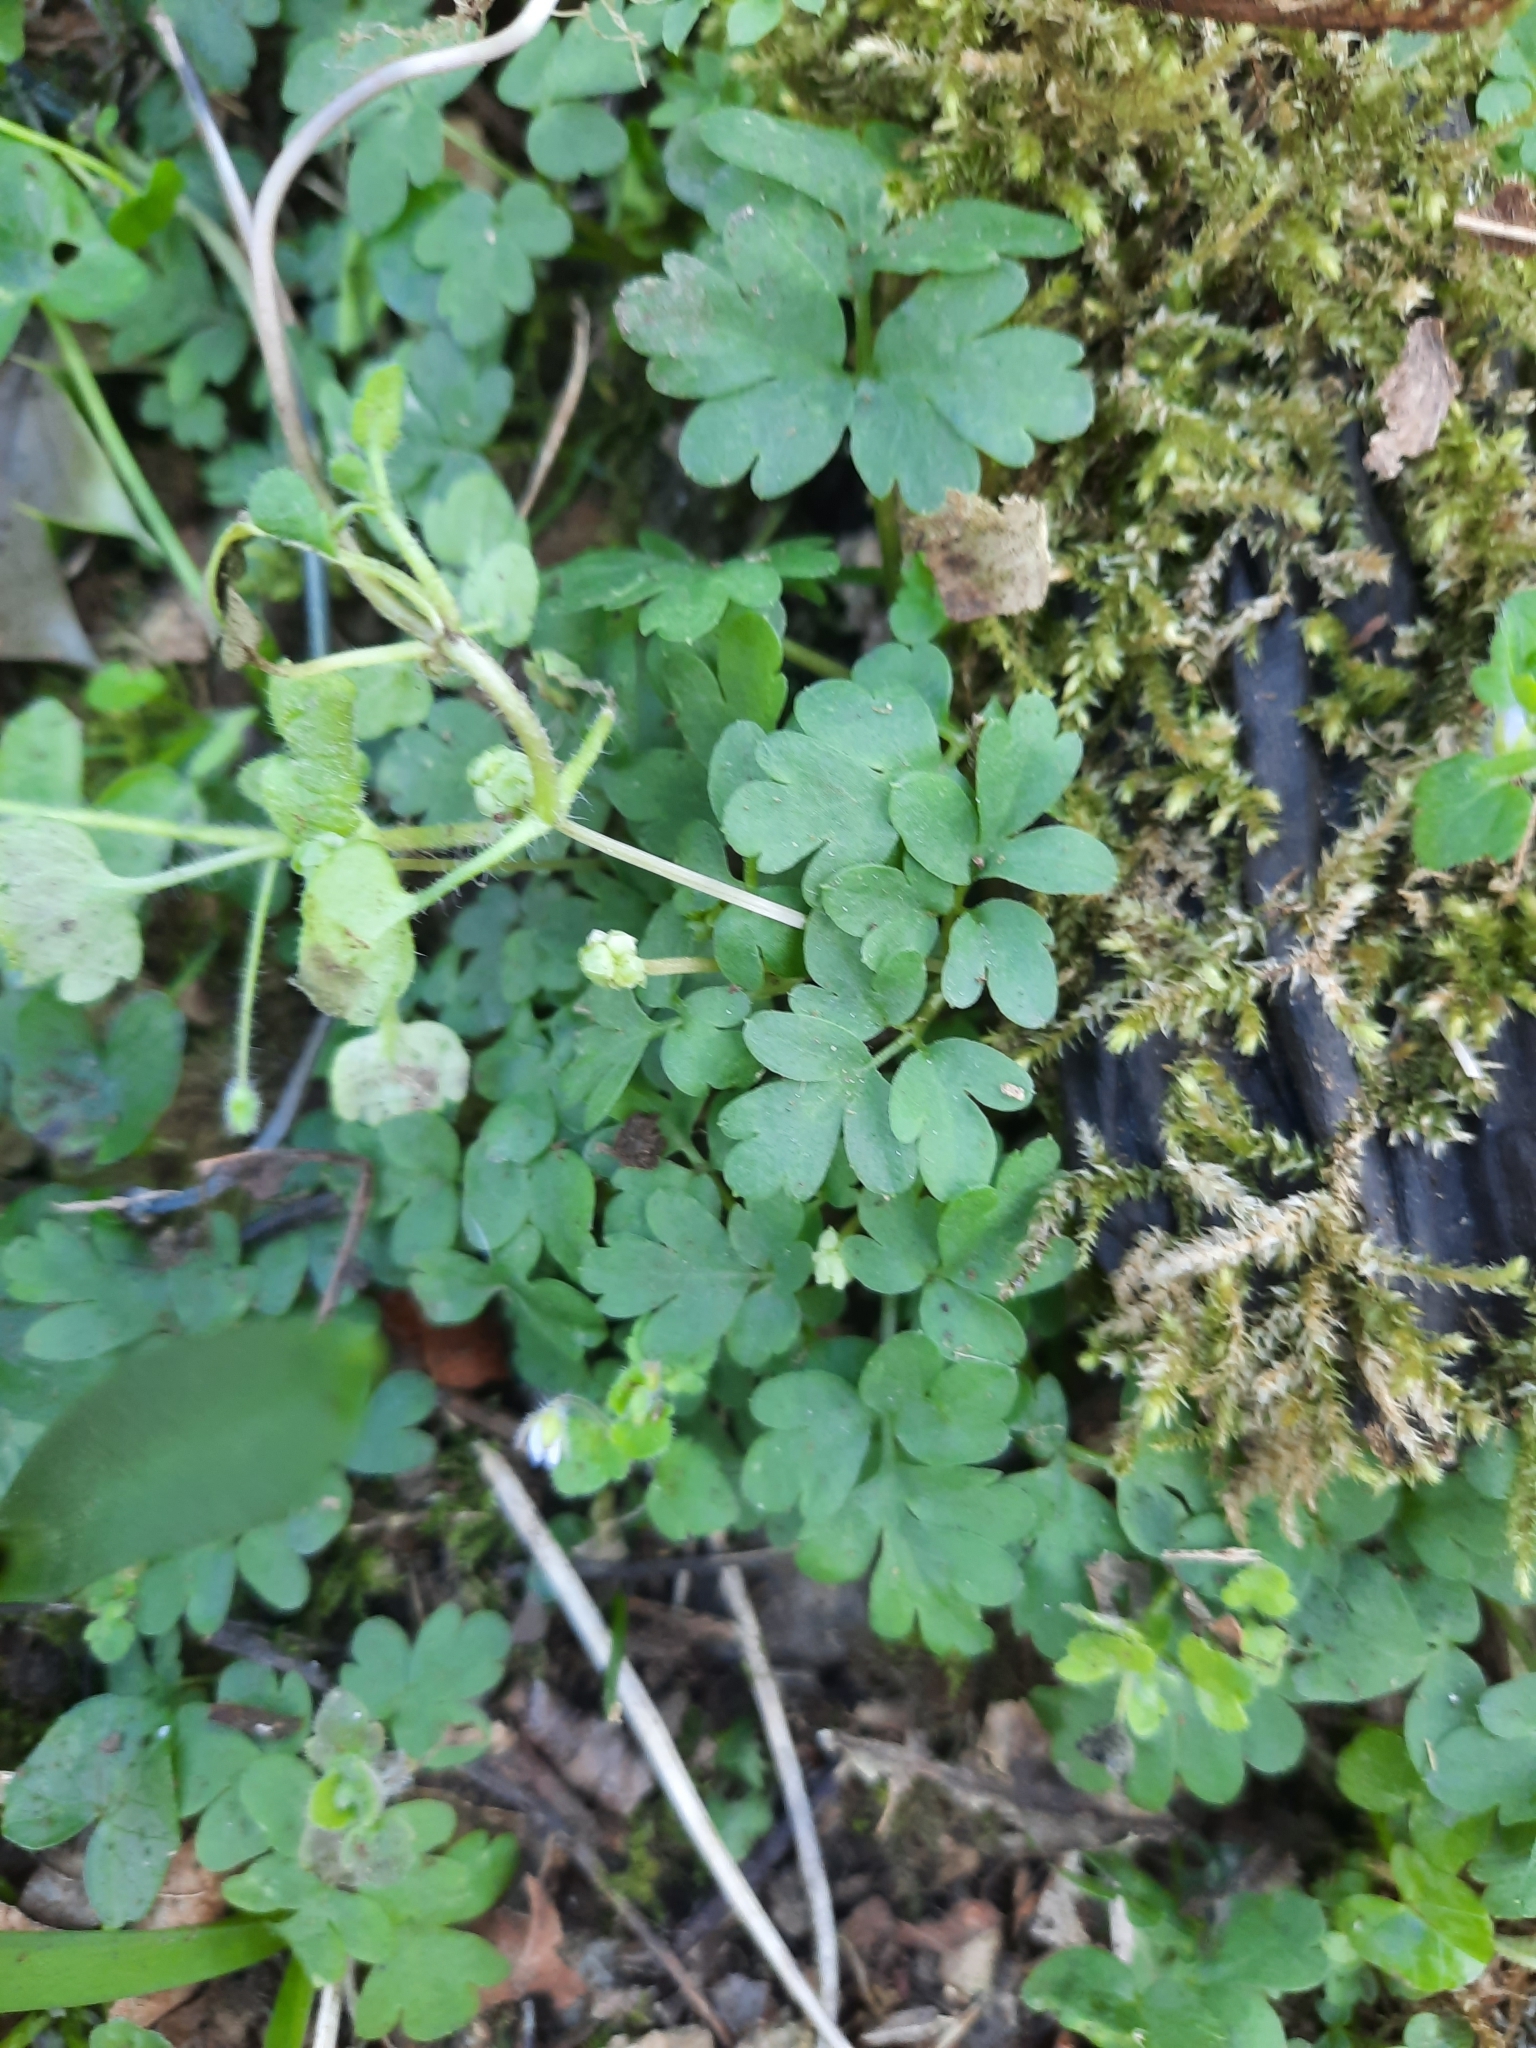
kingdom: Plantae
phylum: Tracheophyta
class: Magnoliopsida
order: Dipsacales
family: Viburnaceae
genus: Adoxa
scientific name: Adoxa moschatellina
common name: Moschatel
